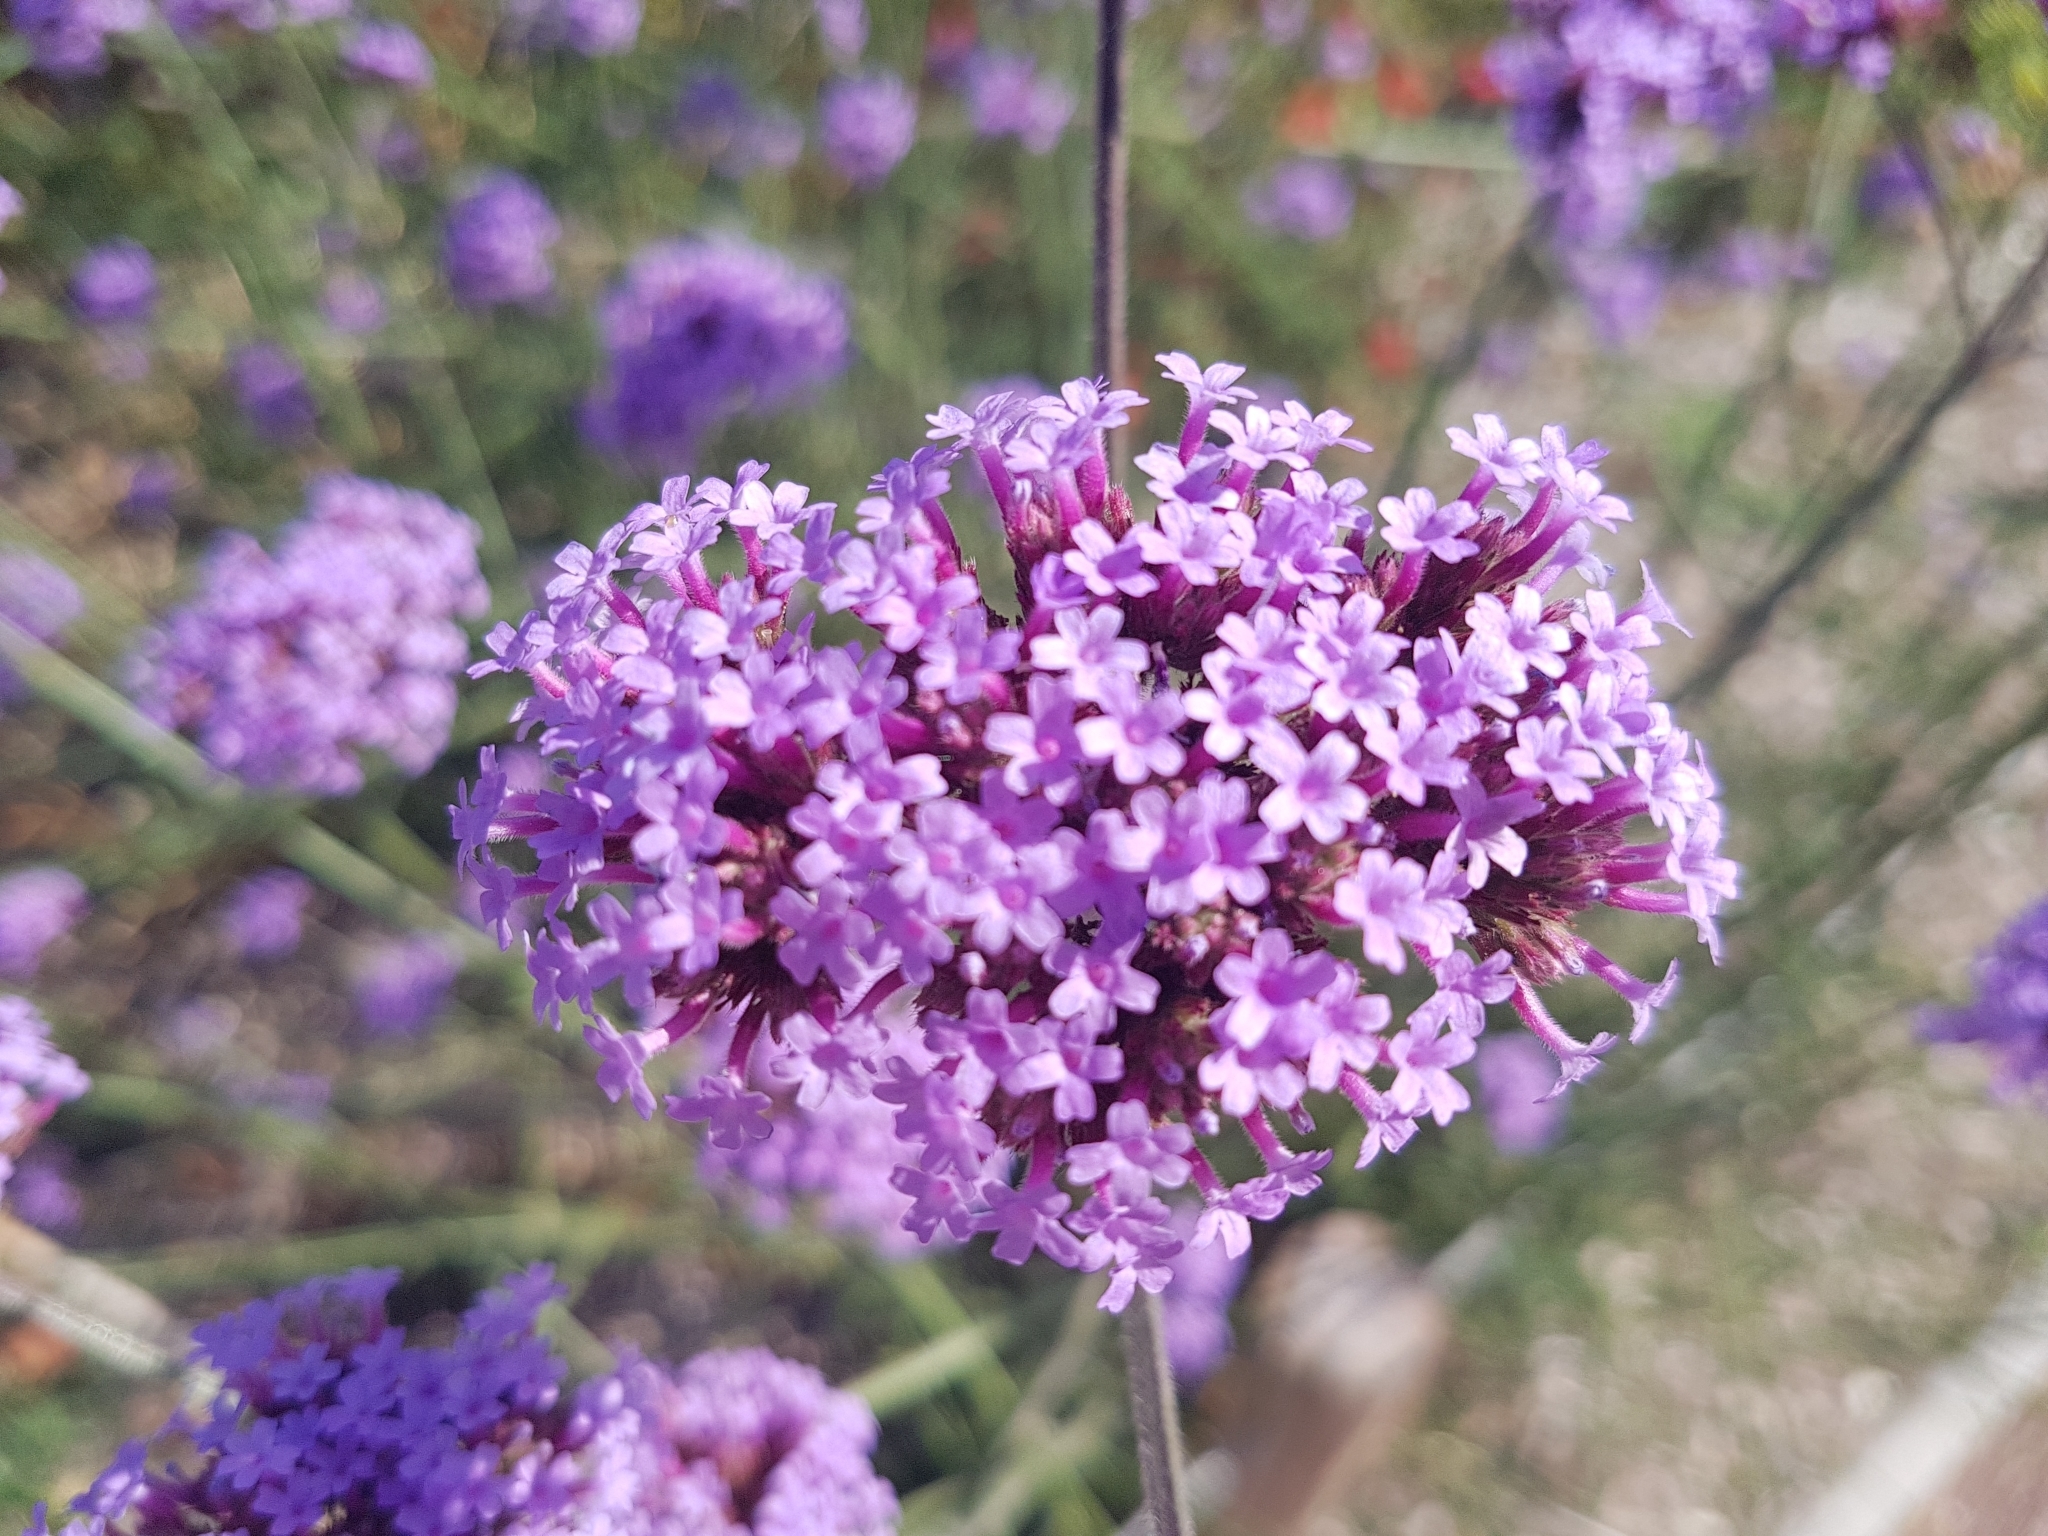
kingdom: Plantae
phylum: Tracheophyta
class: Magnoliopsida
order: Lamiales
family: Verbenaceae
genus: Verbena
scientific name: Verbena bonariensis
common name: Purpletop vervain
